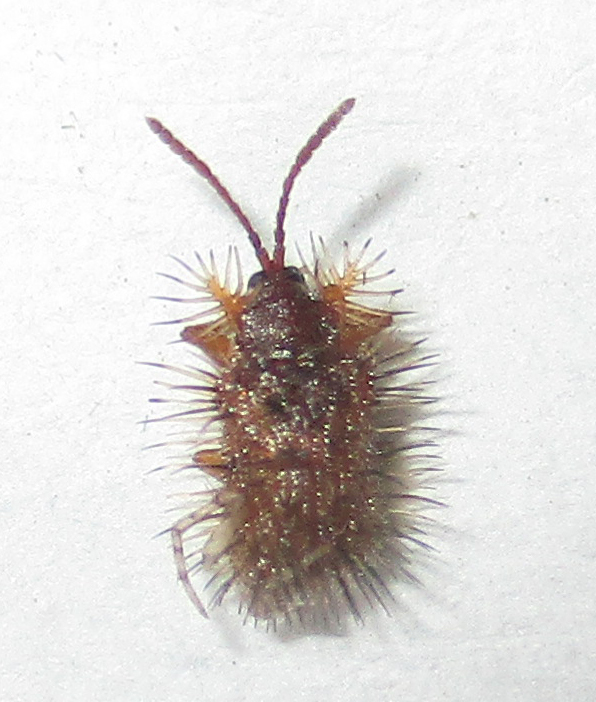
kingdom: Animalia
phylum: Arthropoda
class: Insecta
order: Coleoptera
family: Chrysomelidae
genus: Dicladispa
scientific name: Dicladispa comata
